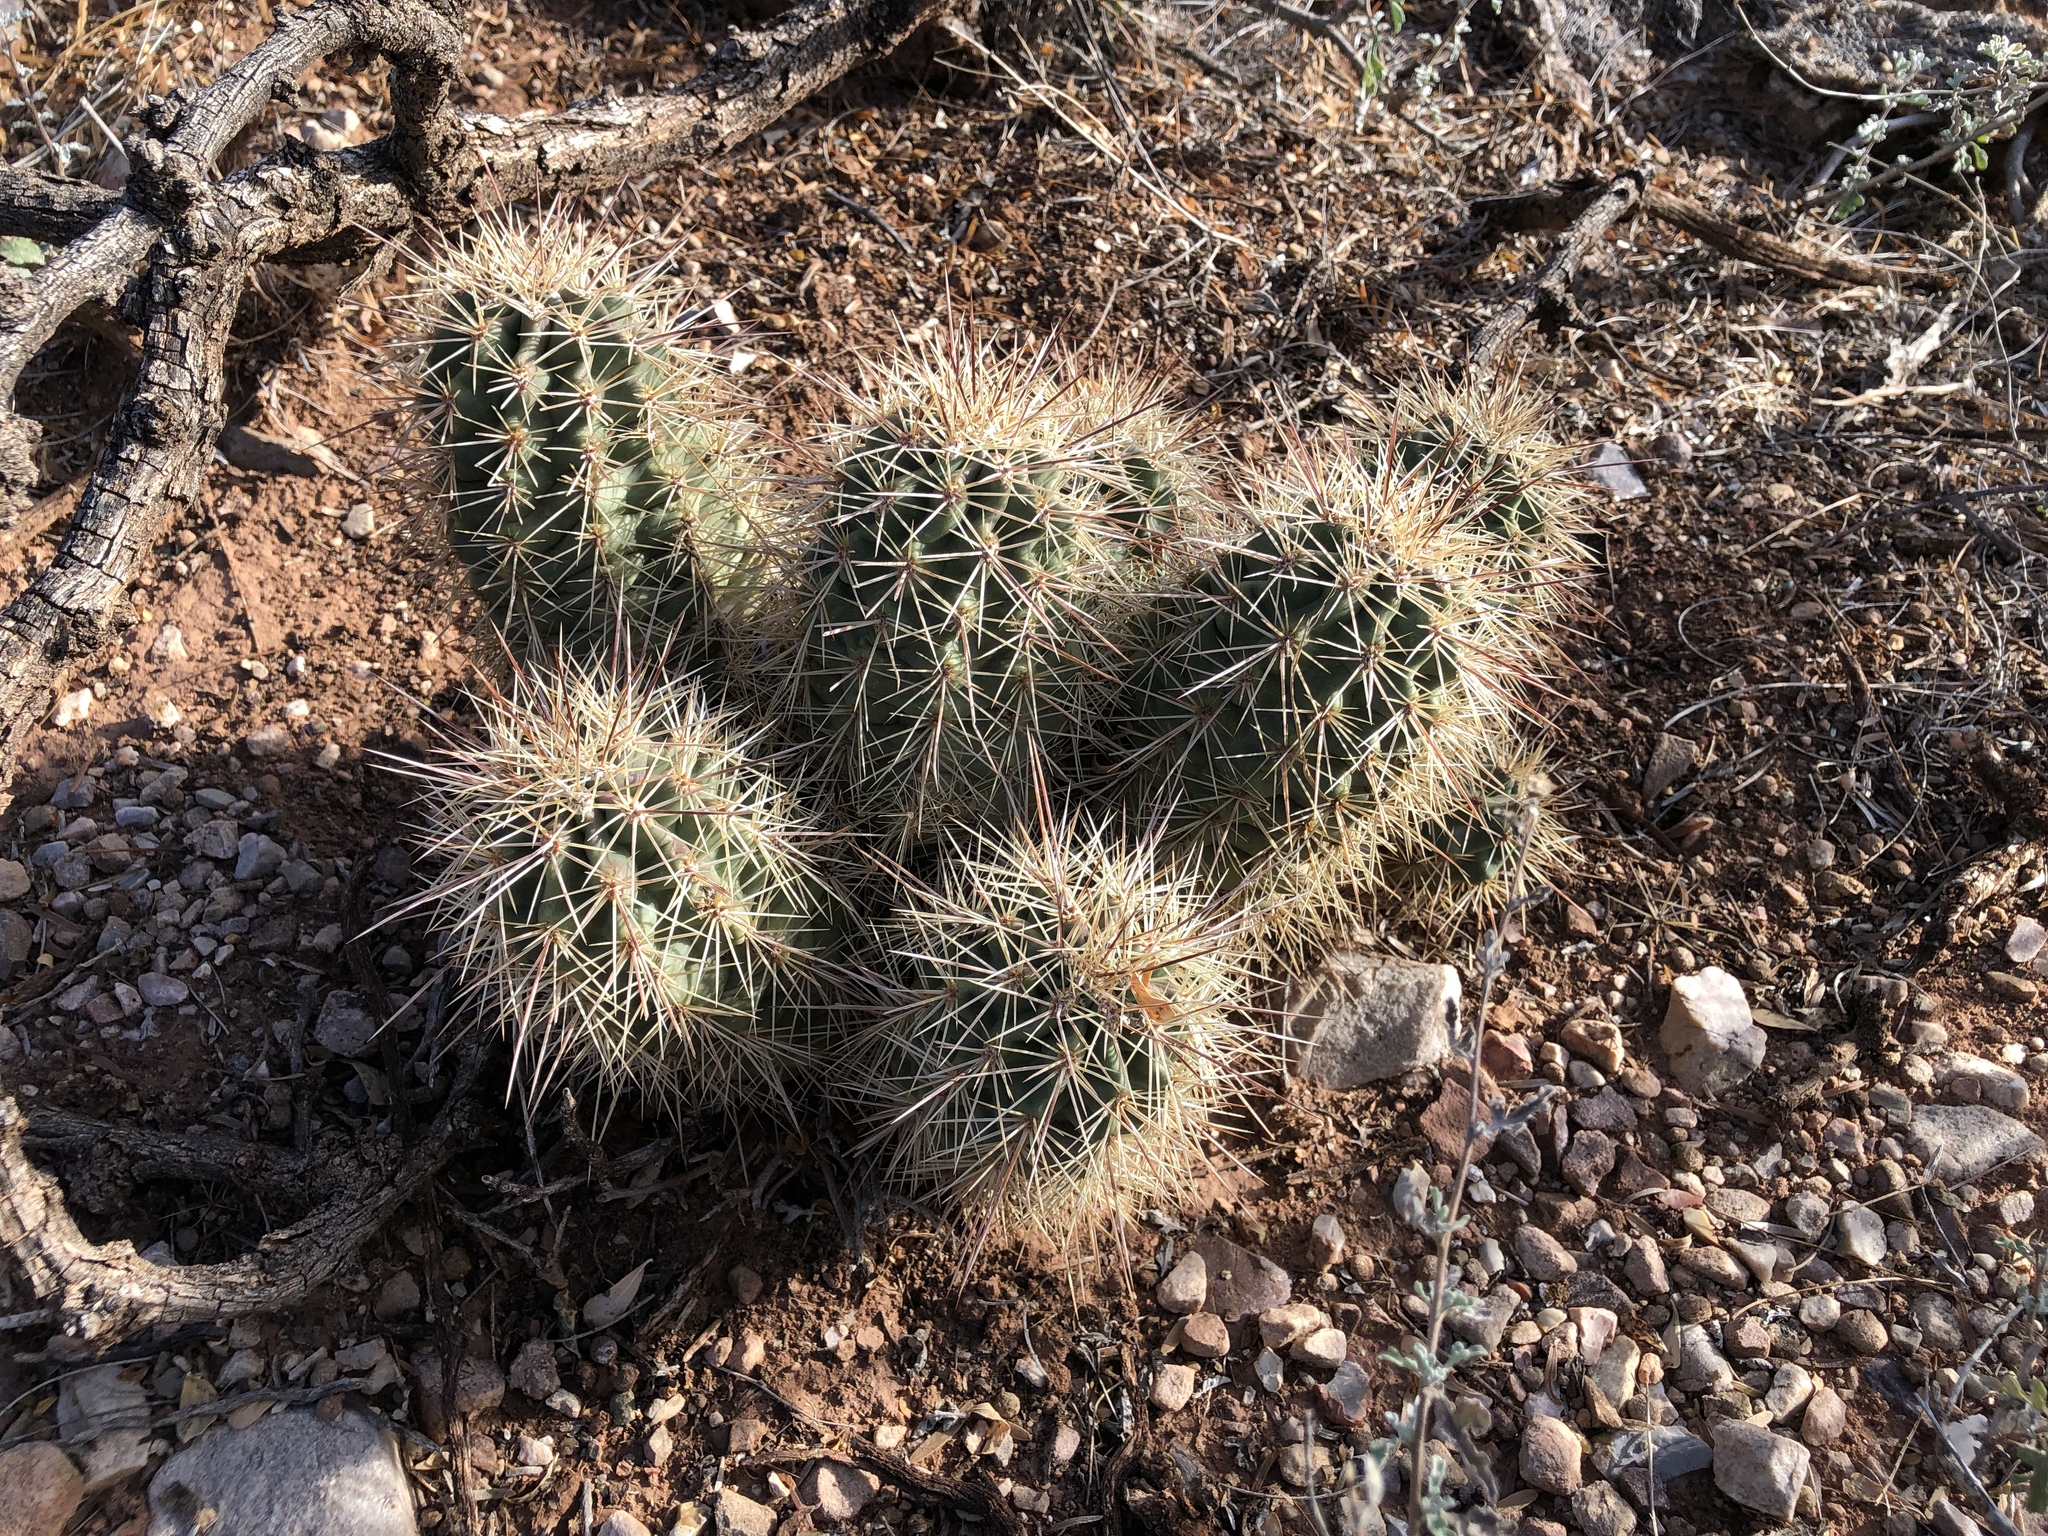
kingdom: Plantae
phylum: Tracheophyta
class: Magnoliopsida
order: Caryophyllales
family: Cactaceae
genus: Echinocereus
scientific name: Echinocereus coccineus
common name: Scarlet hedgehog cactus
